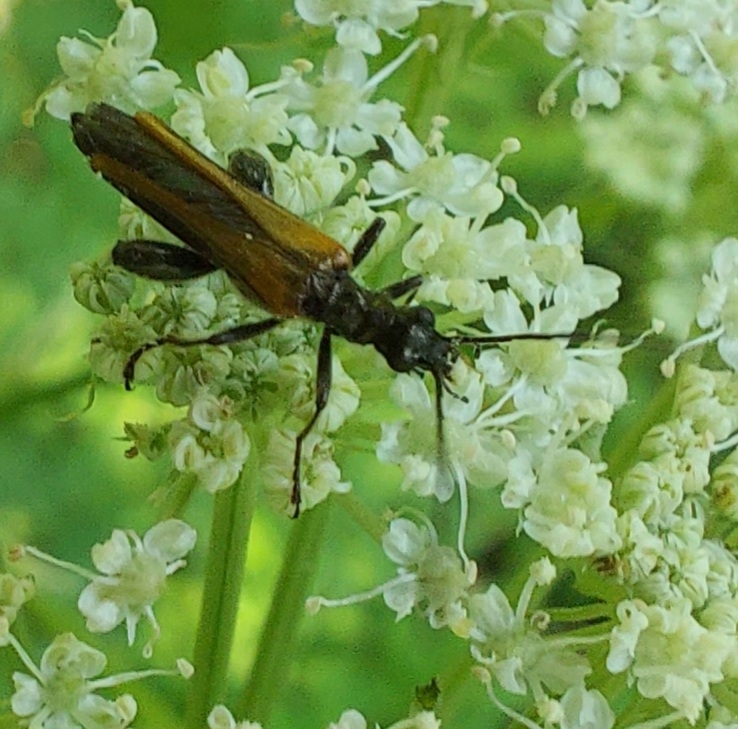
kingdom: Animalia
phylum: Arthropoda
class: Insecta
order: Coleoptera
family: Oedemeridae
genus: Oedemera
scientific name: Oedemera femorata
